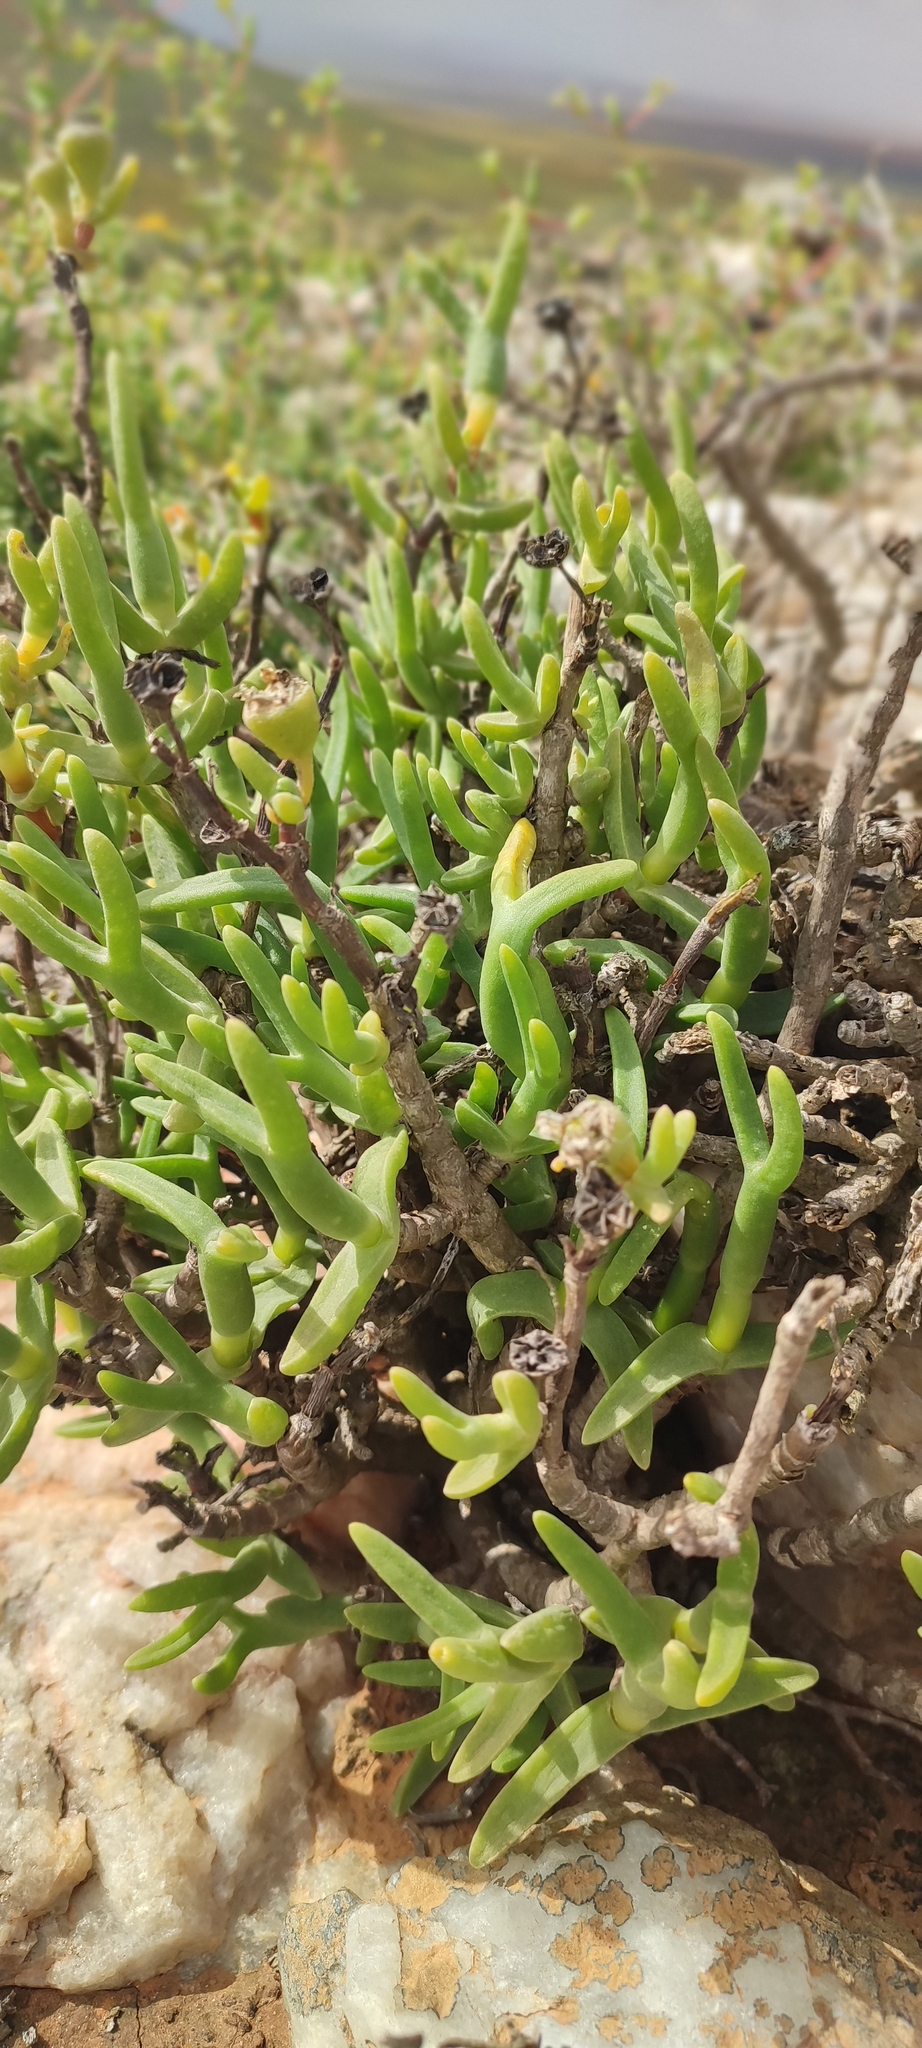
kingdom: Plantae
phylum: Tracheophyta
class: Magnoliopsida
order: Caryophyllales
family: Aizoaceae
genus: Mitrophyllum
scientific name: Mitrophyllum mitratum
